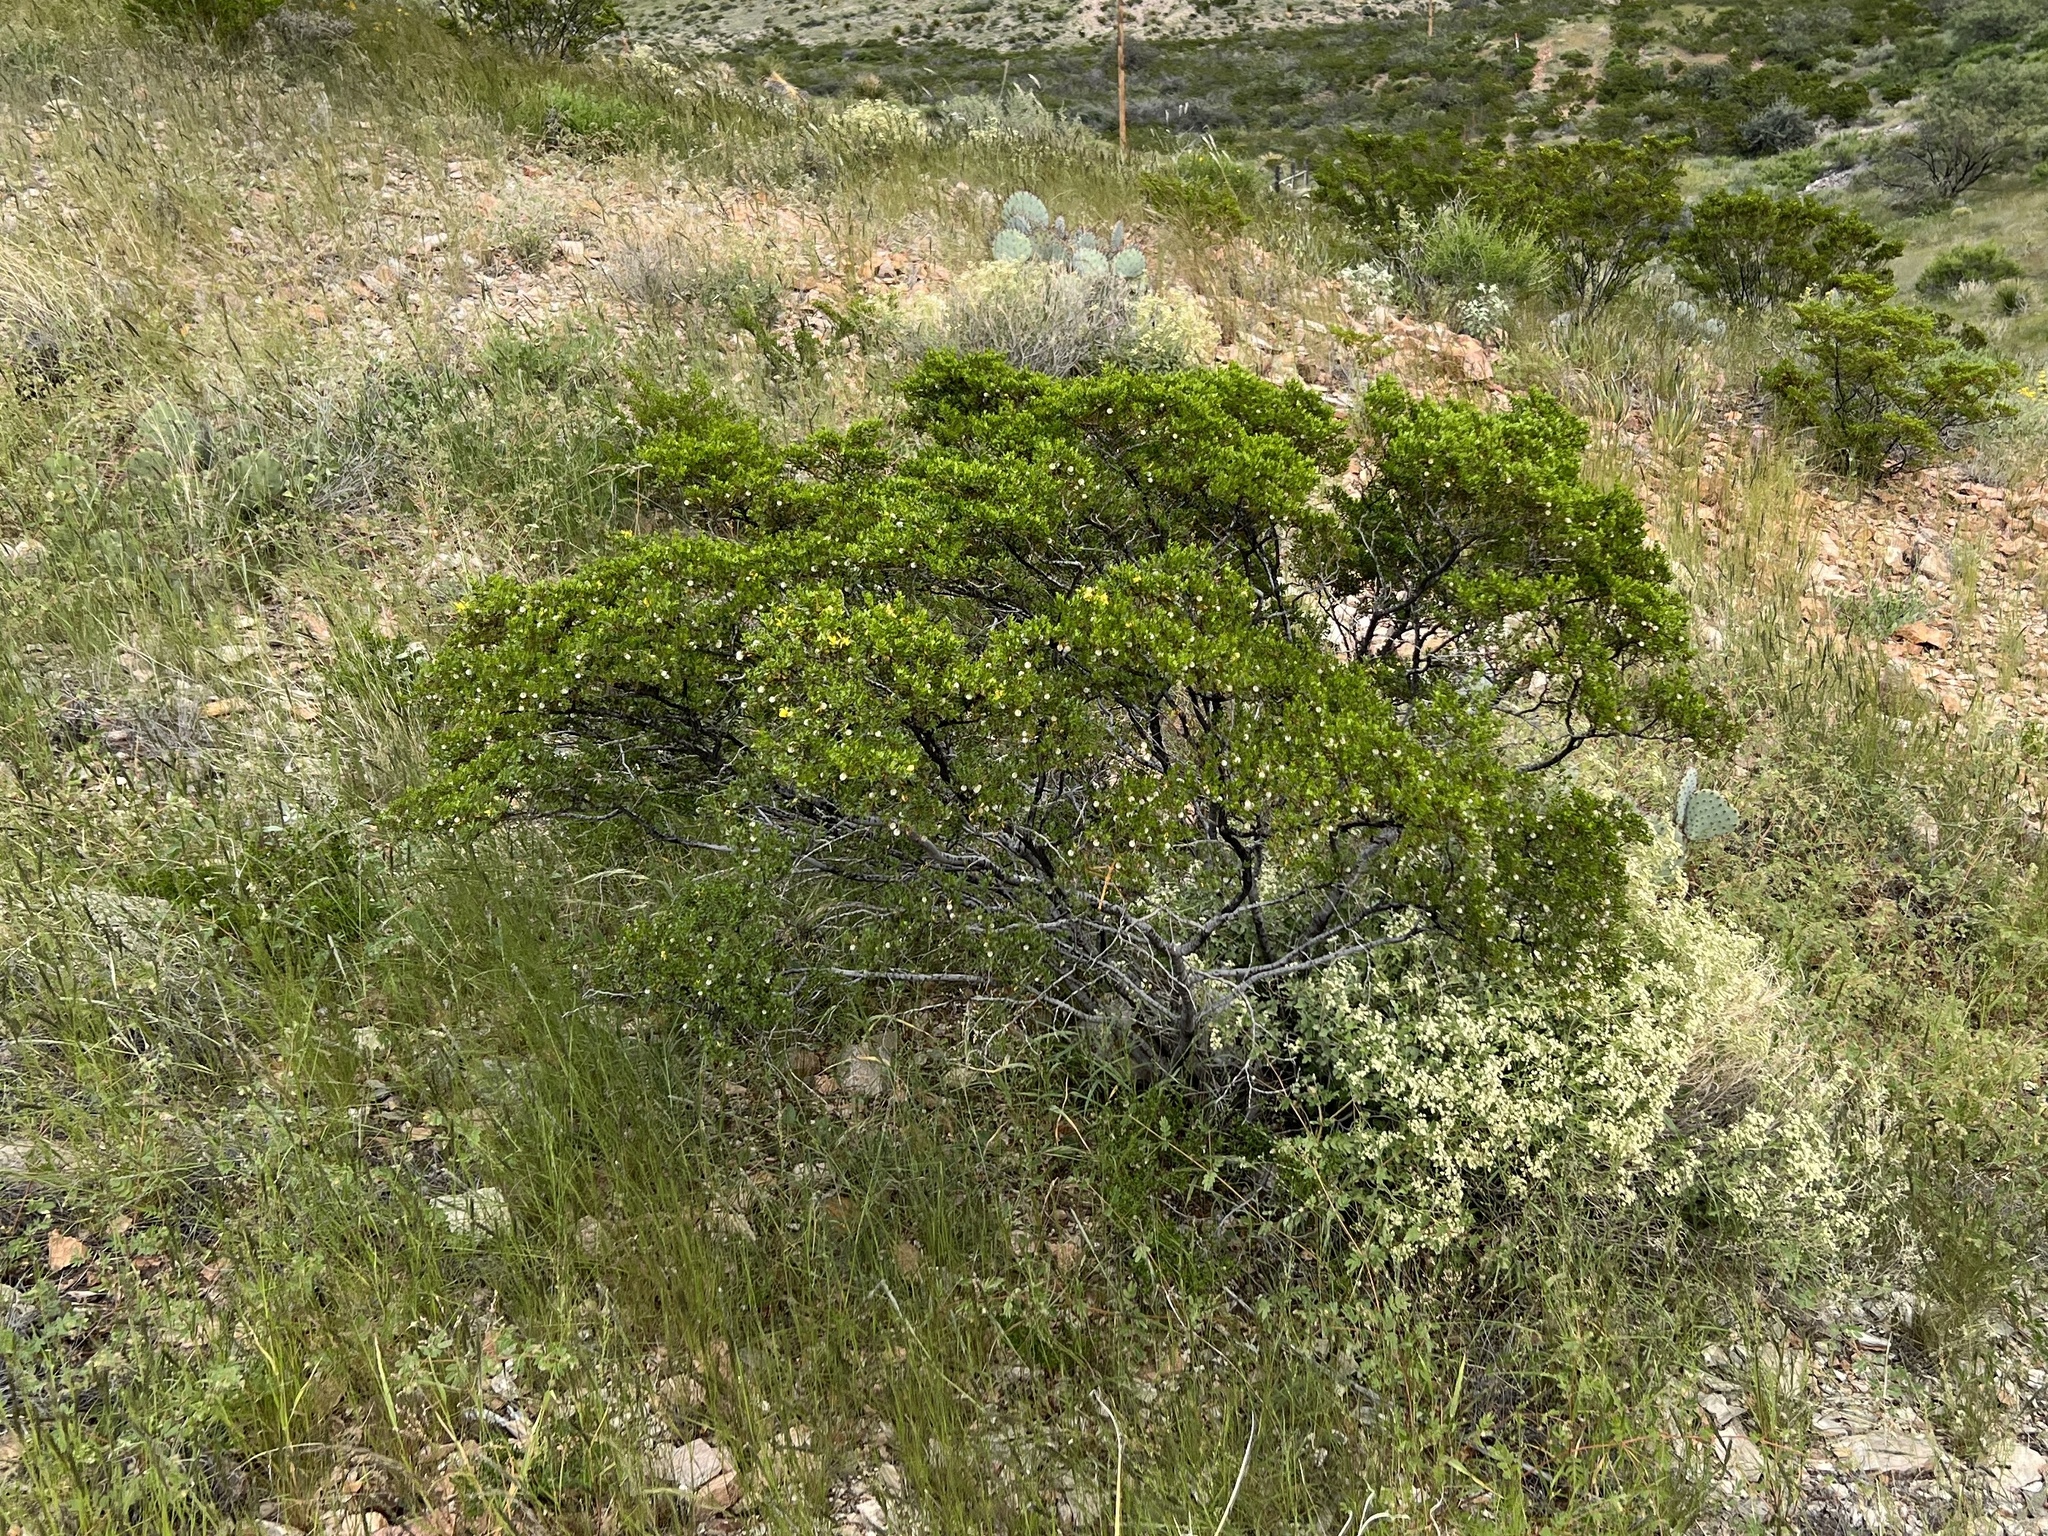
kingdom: Plantae
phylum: Tracheophyta
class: Magnoliopsida
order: Zygophyllales
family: Zygophyllaceae
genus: Larrea
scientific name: Larrea tridentata
